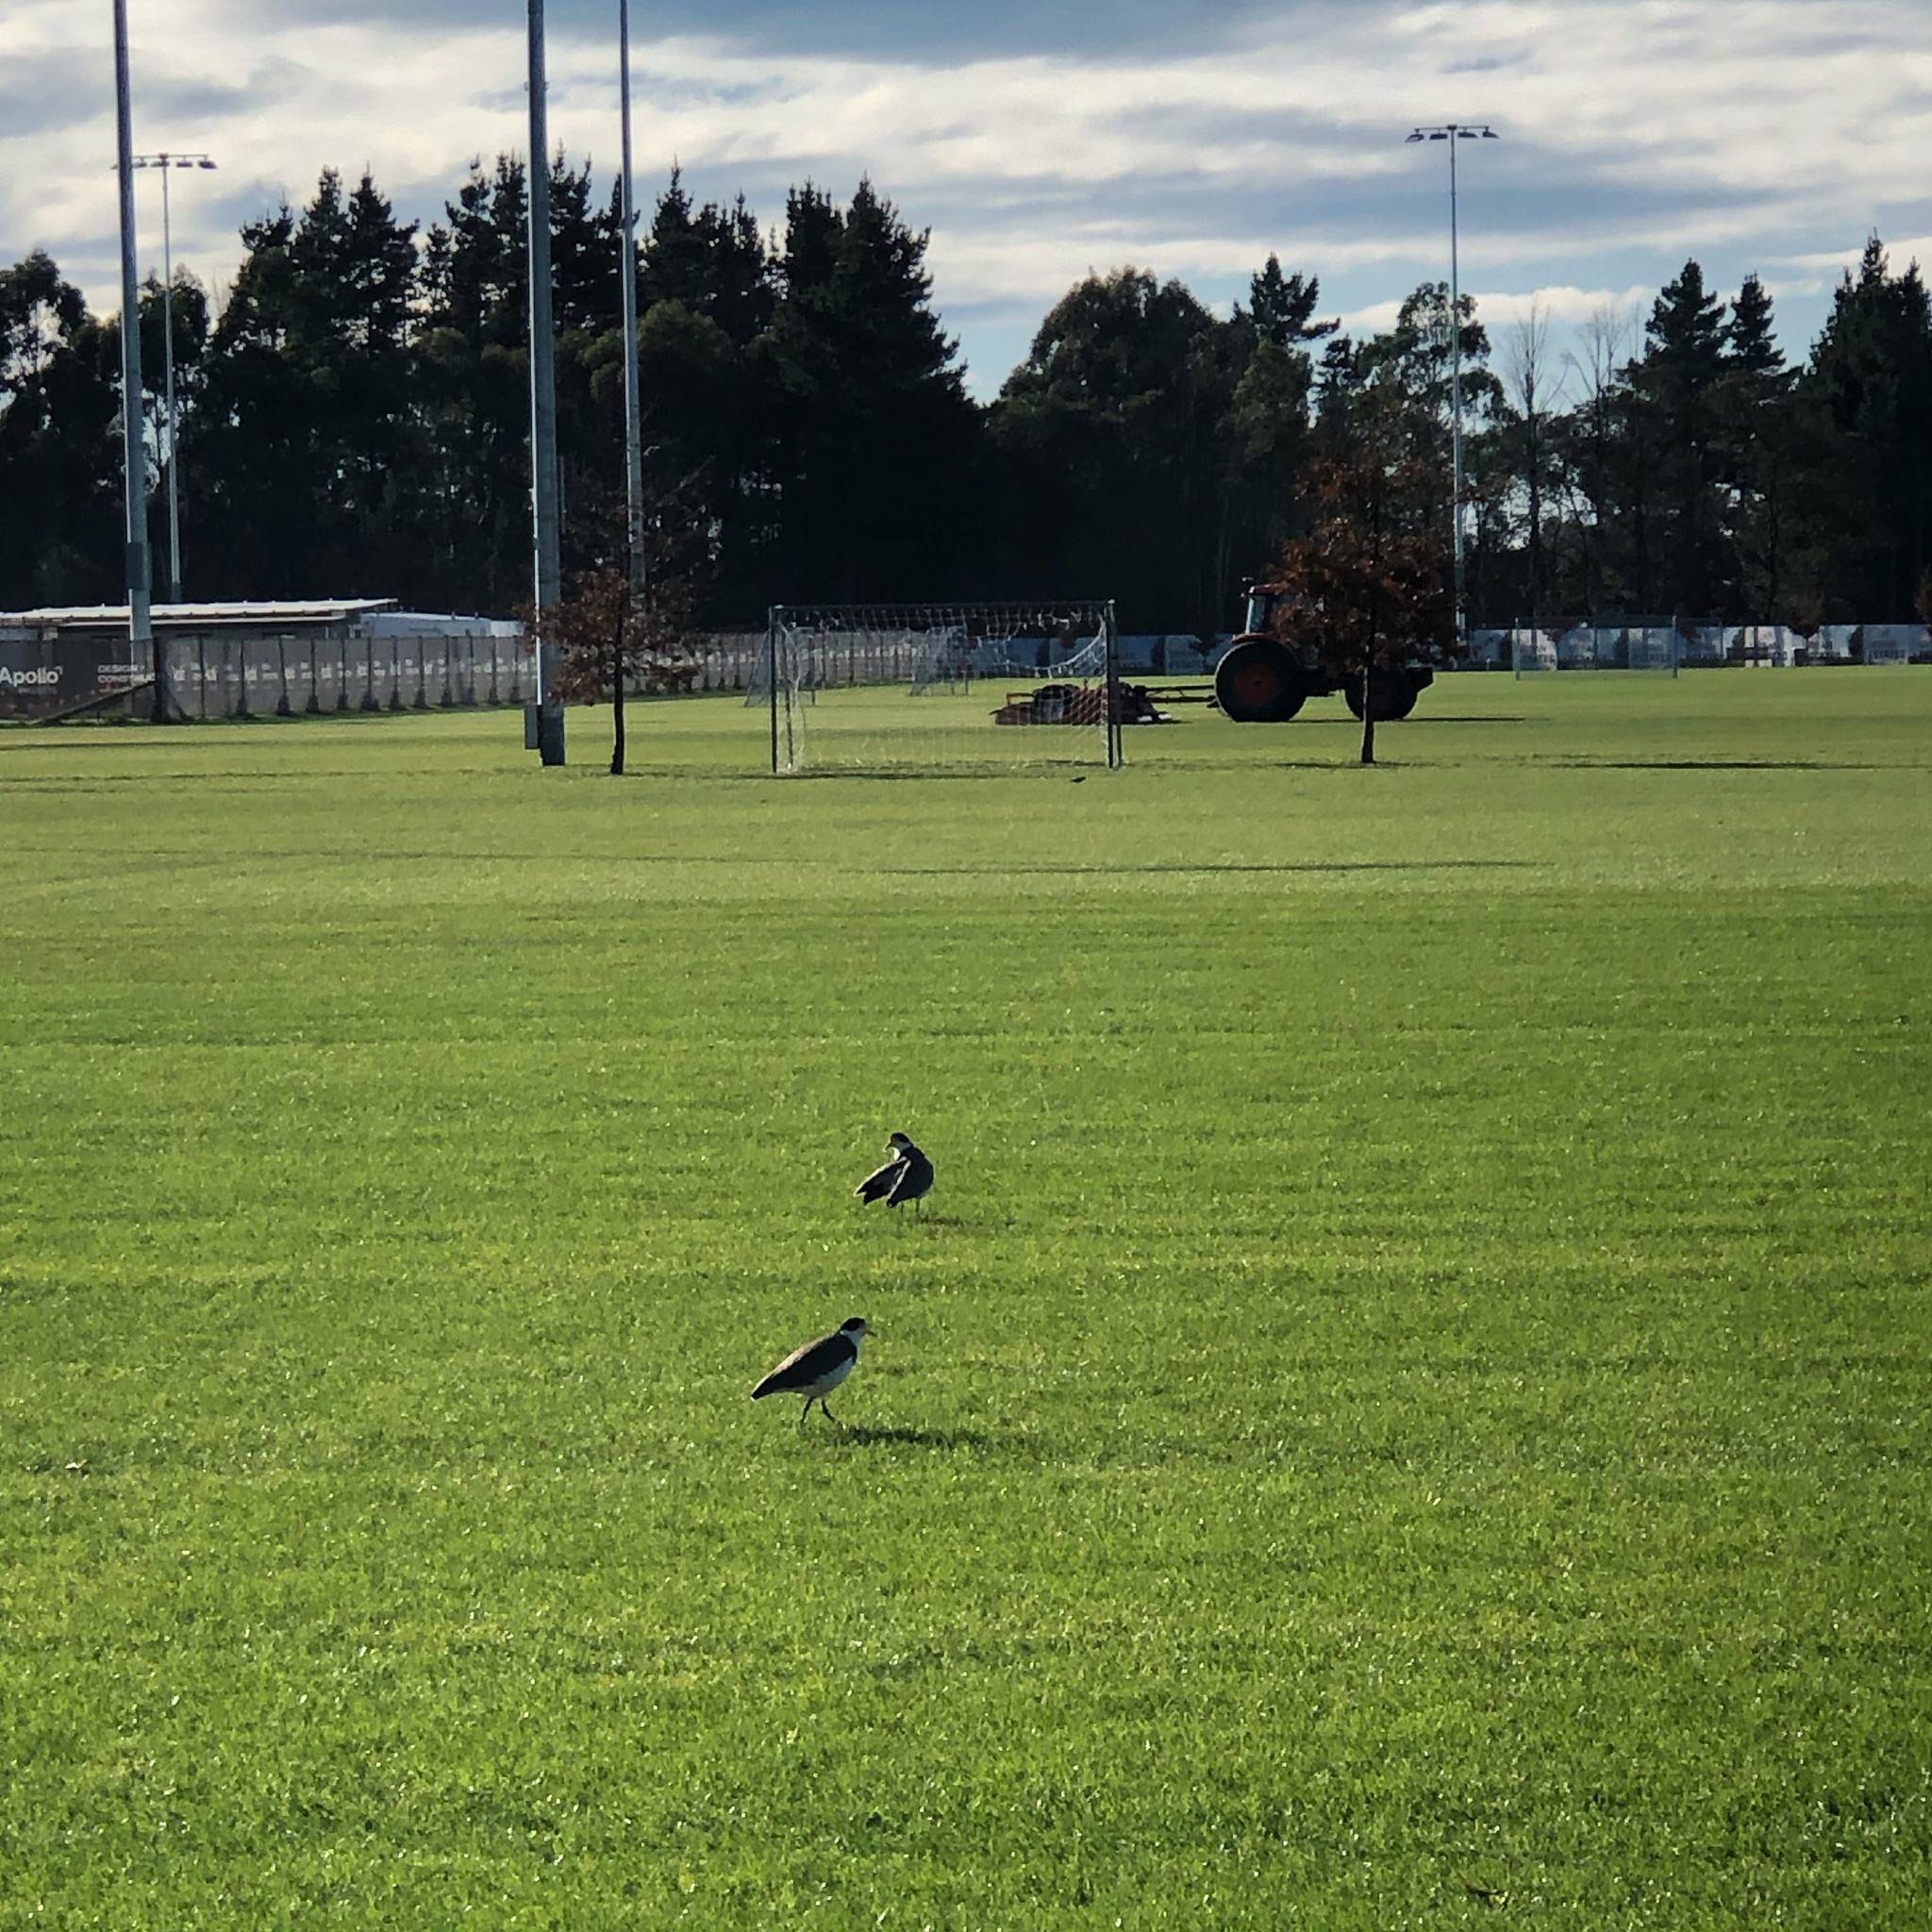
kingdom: Animalia
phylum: Chordata
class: Aves
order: Charadriiformes
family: Charadriidae
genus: Vanellus
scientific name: Vanellus miles
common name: Masked lapwing
